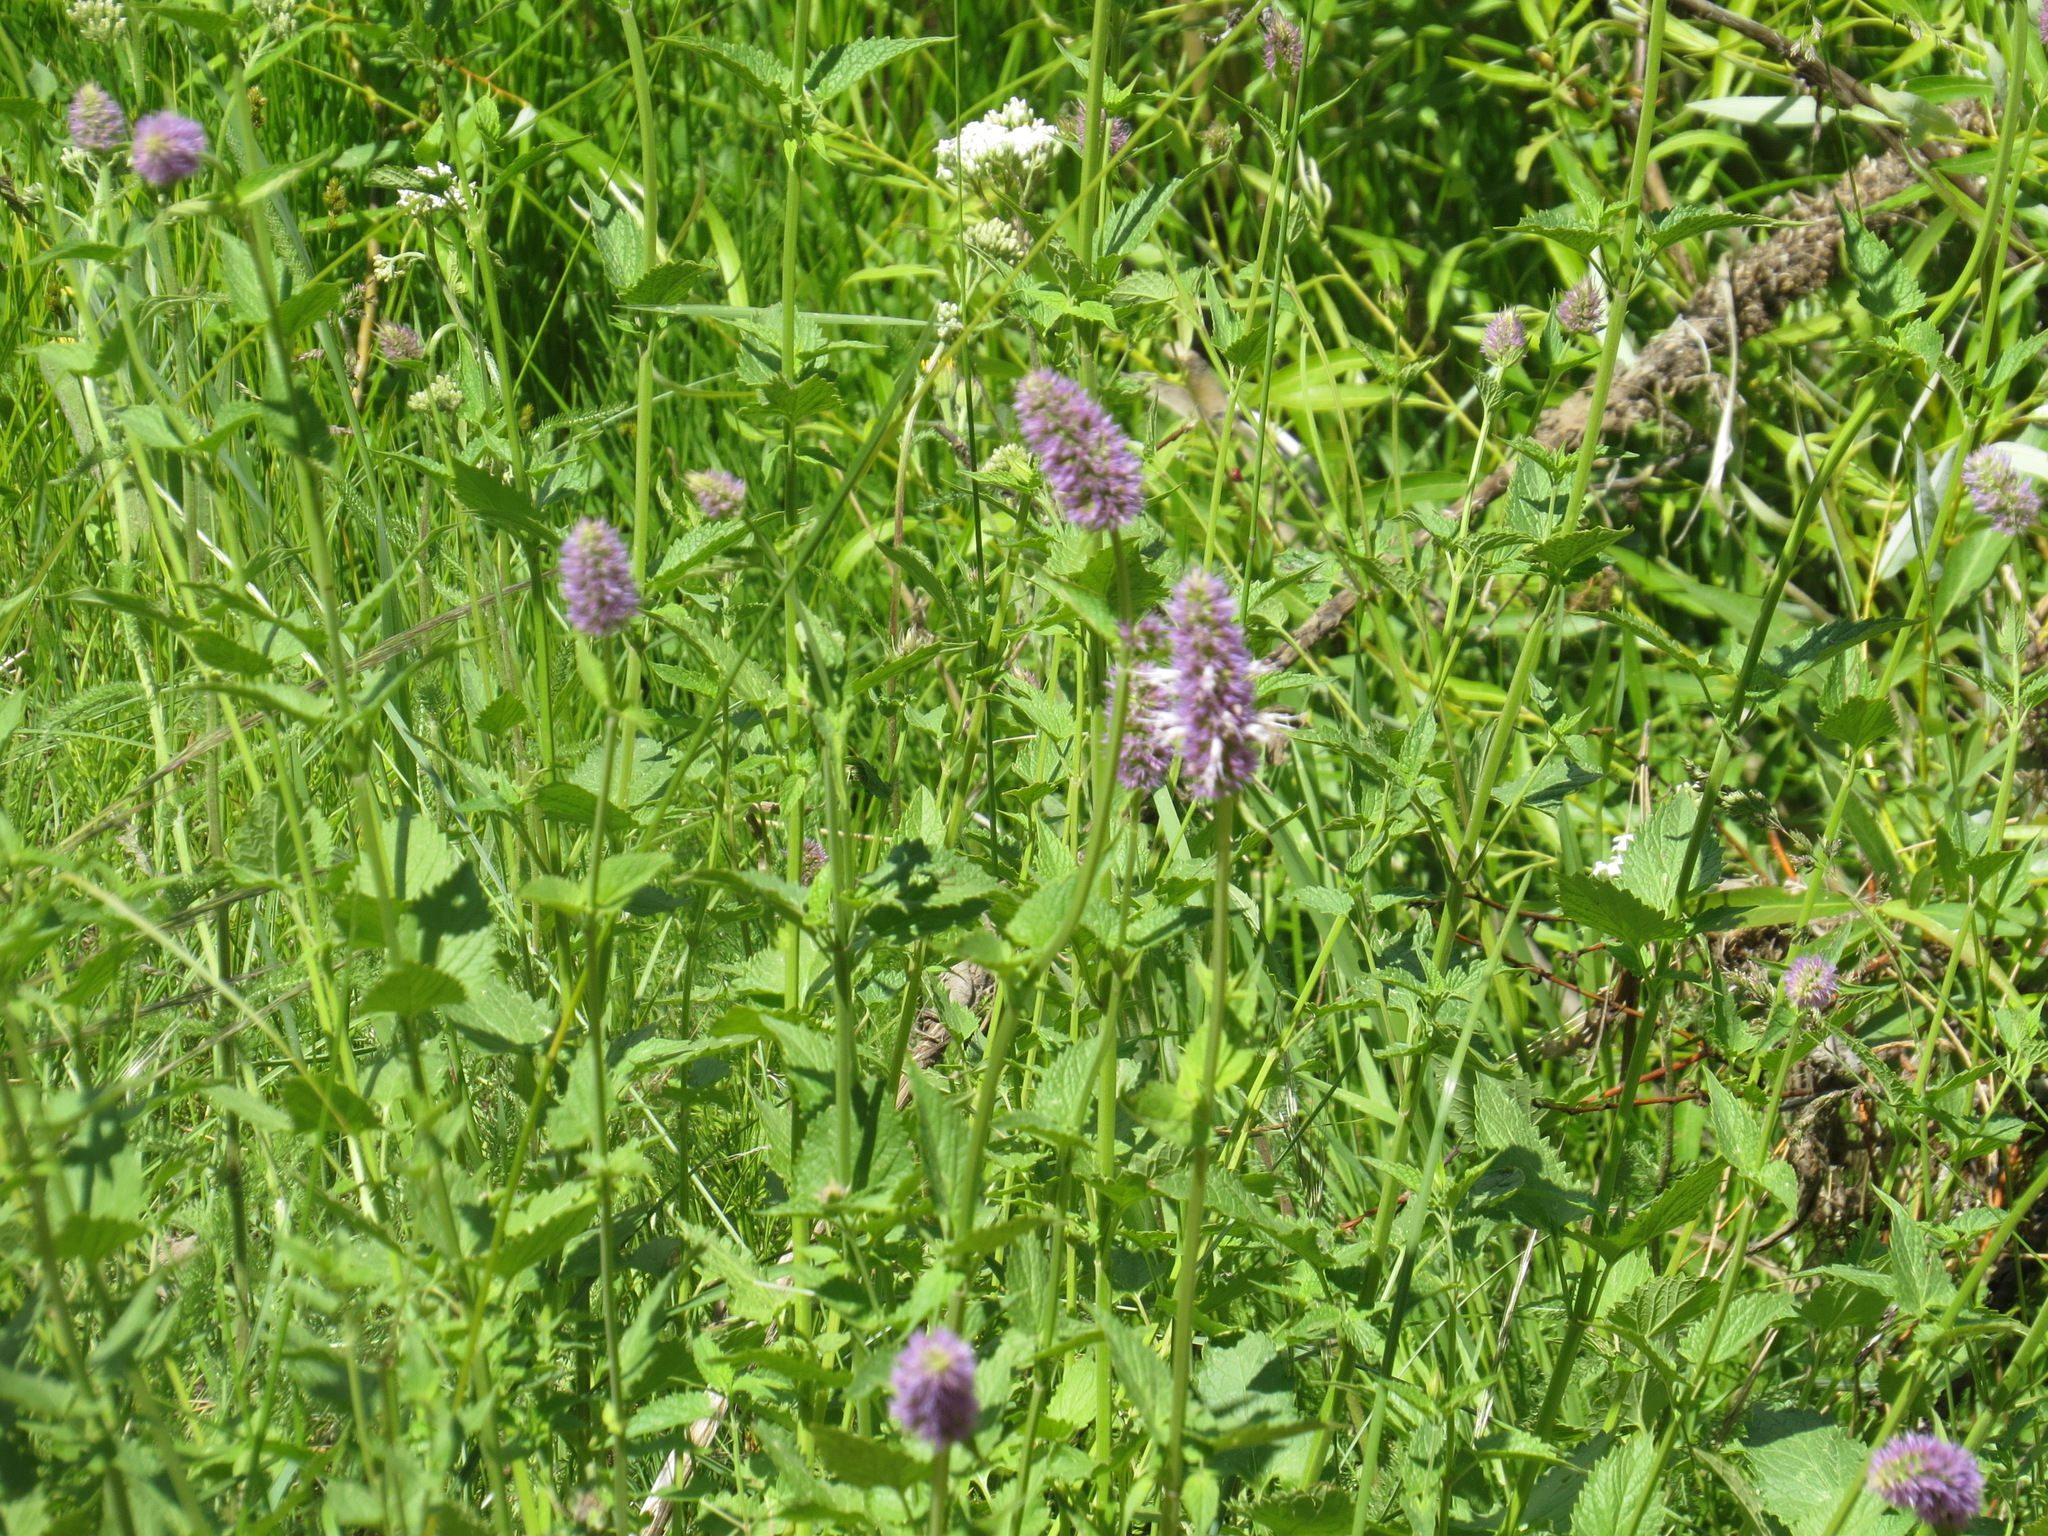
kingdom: Plantae
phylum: Tracheophyta
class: Magnoliopsida
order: Lamiales
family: Lamiaceae
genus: Agastache
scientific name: Agastache urticifolia
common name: Horsemint giant hyssop
